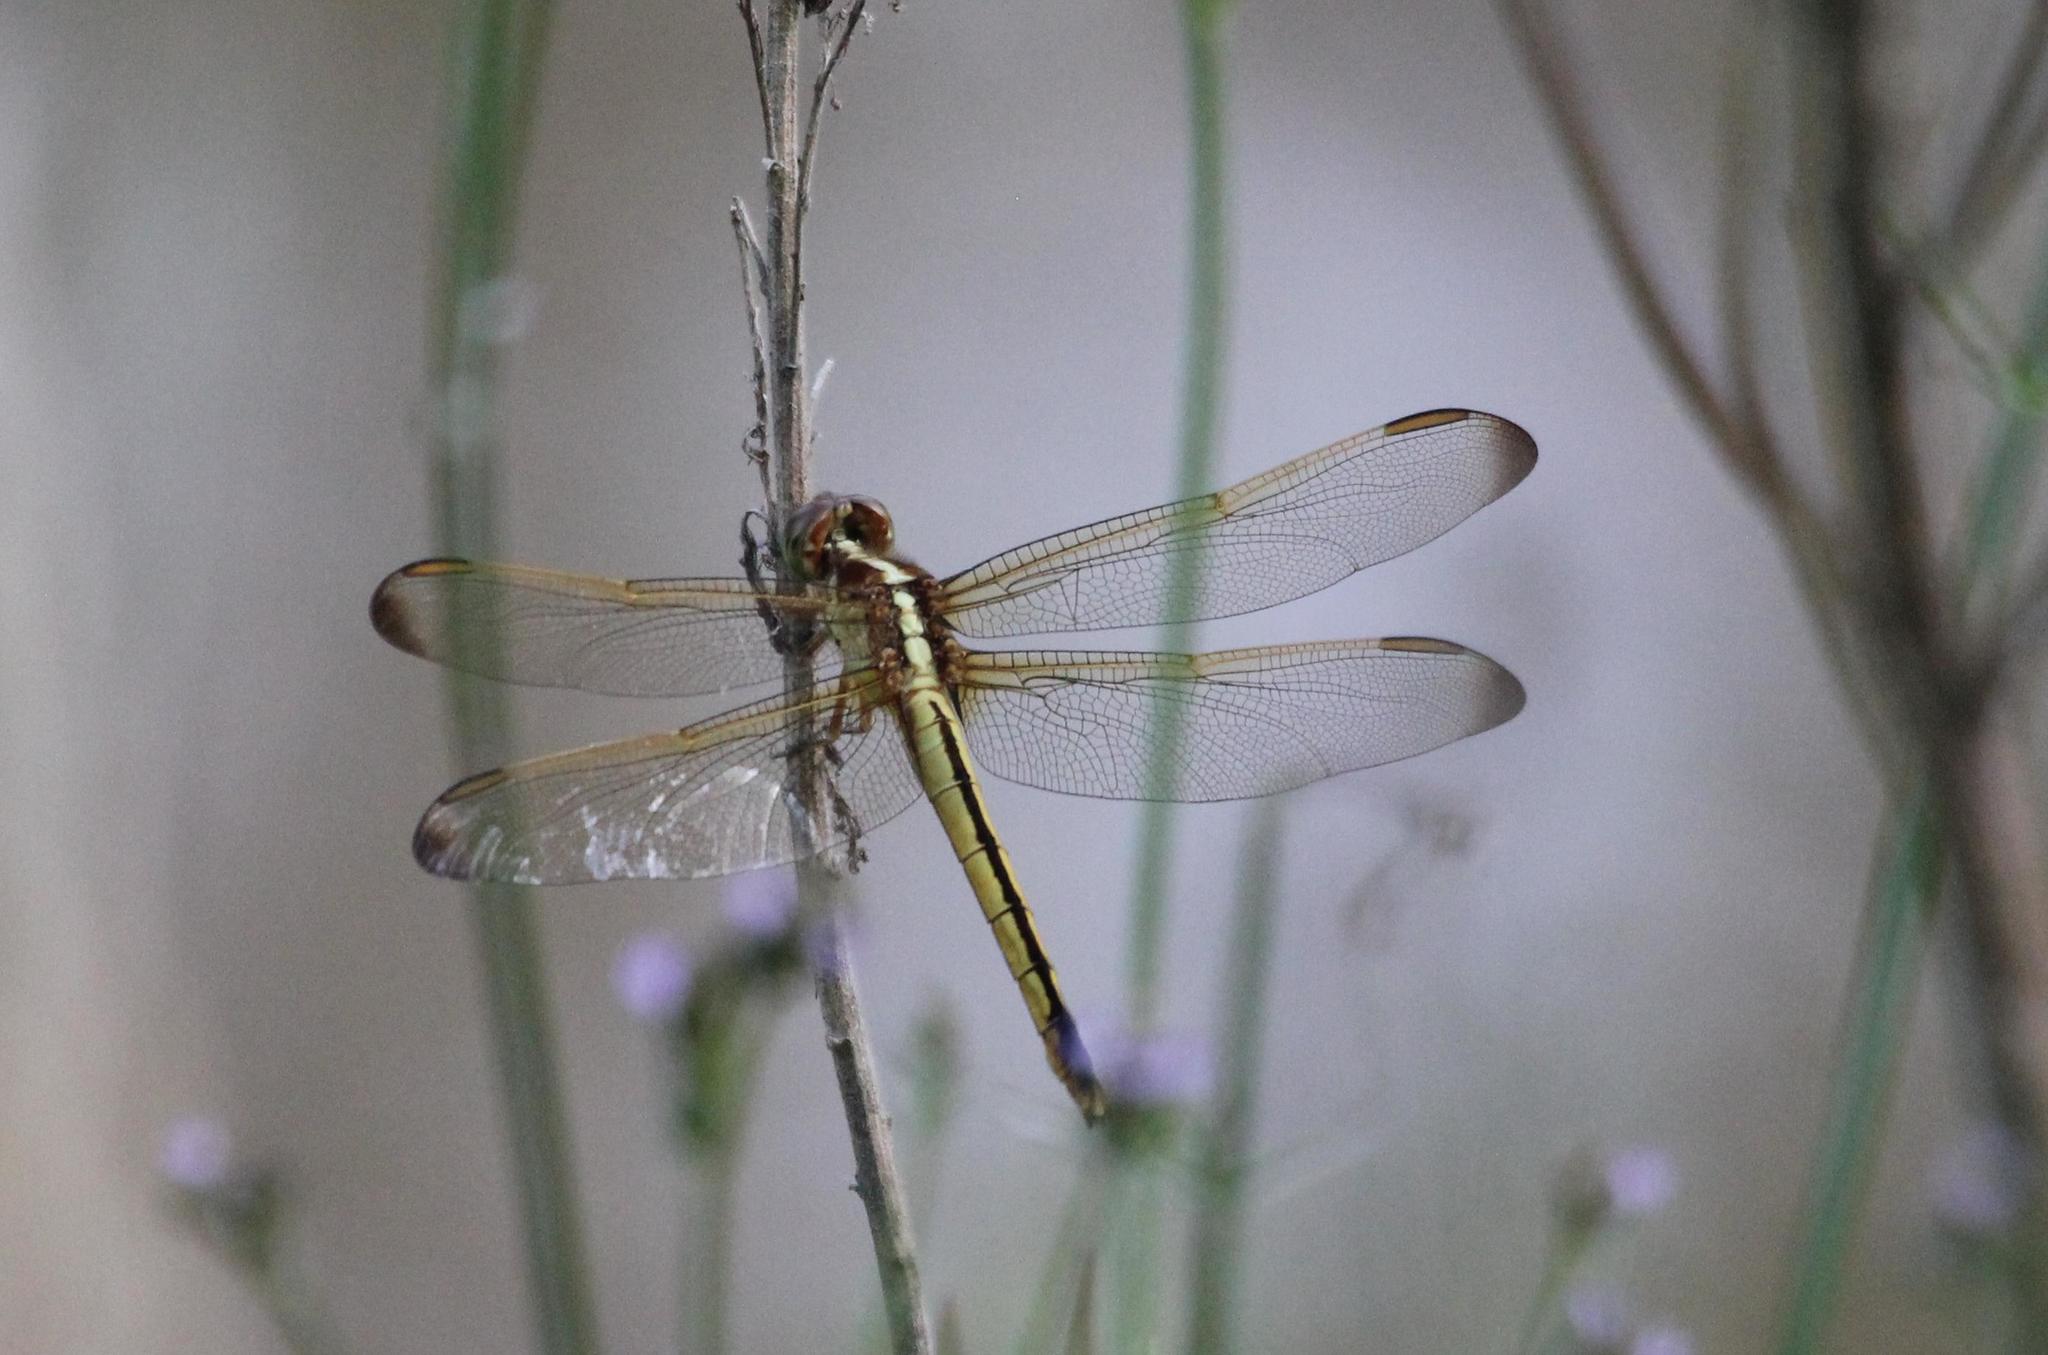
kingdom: Animalia
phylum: Arthropoda
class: Insecta
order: Odonata
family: Libellulidae
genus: Libellula
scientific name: Libellula needhami
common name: Needham's skimmer
